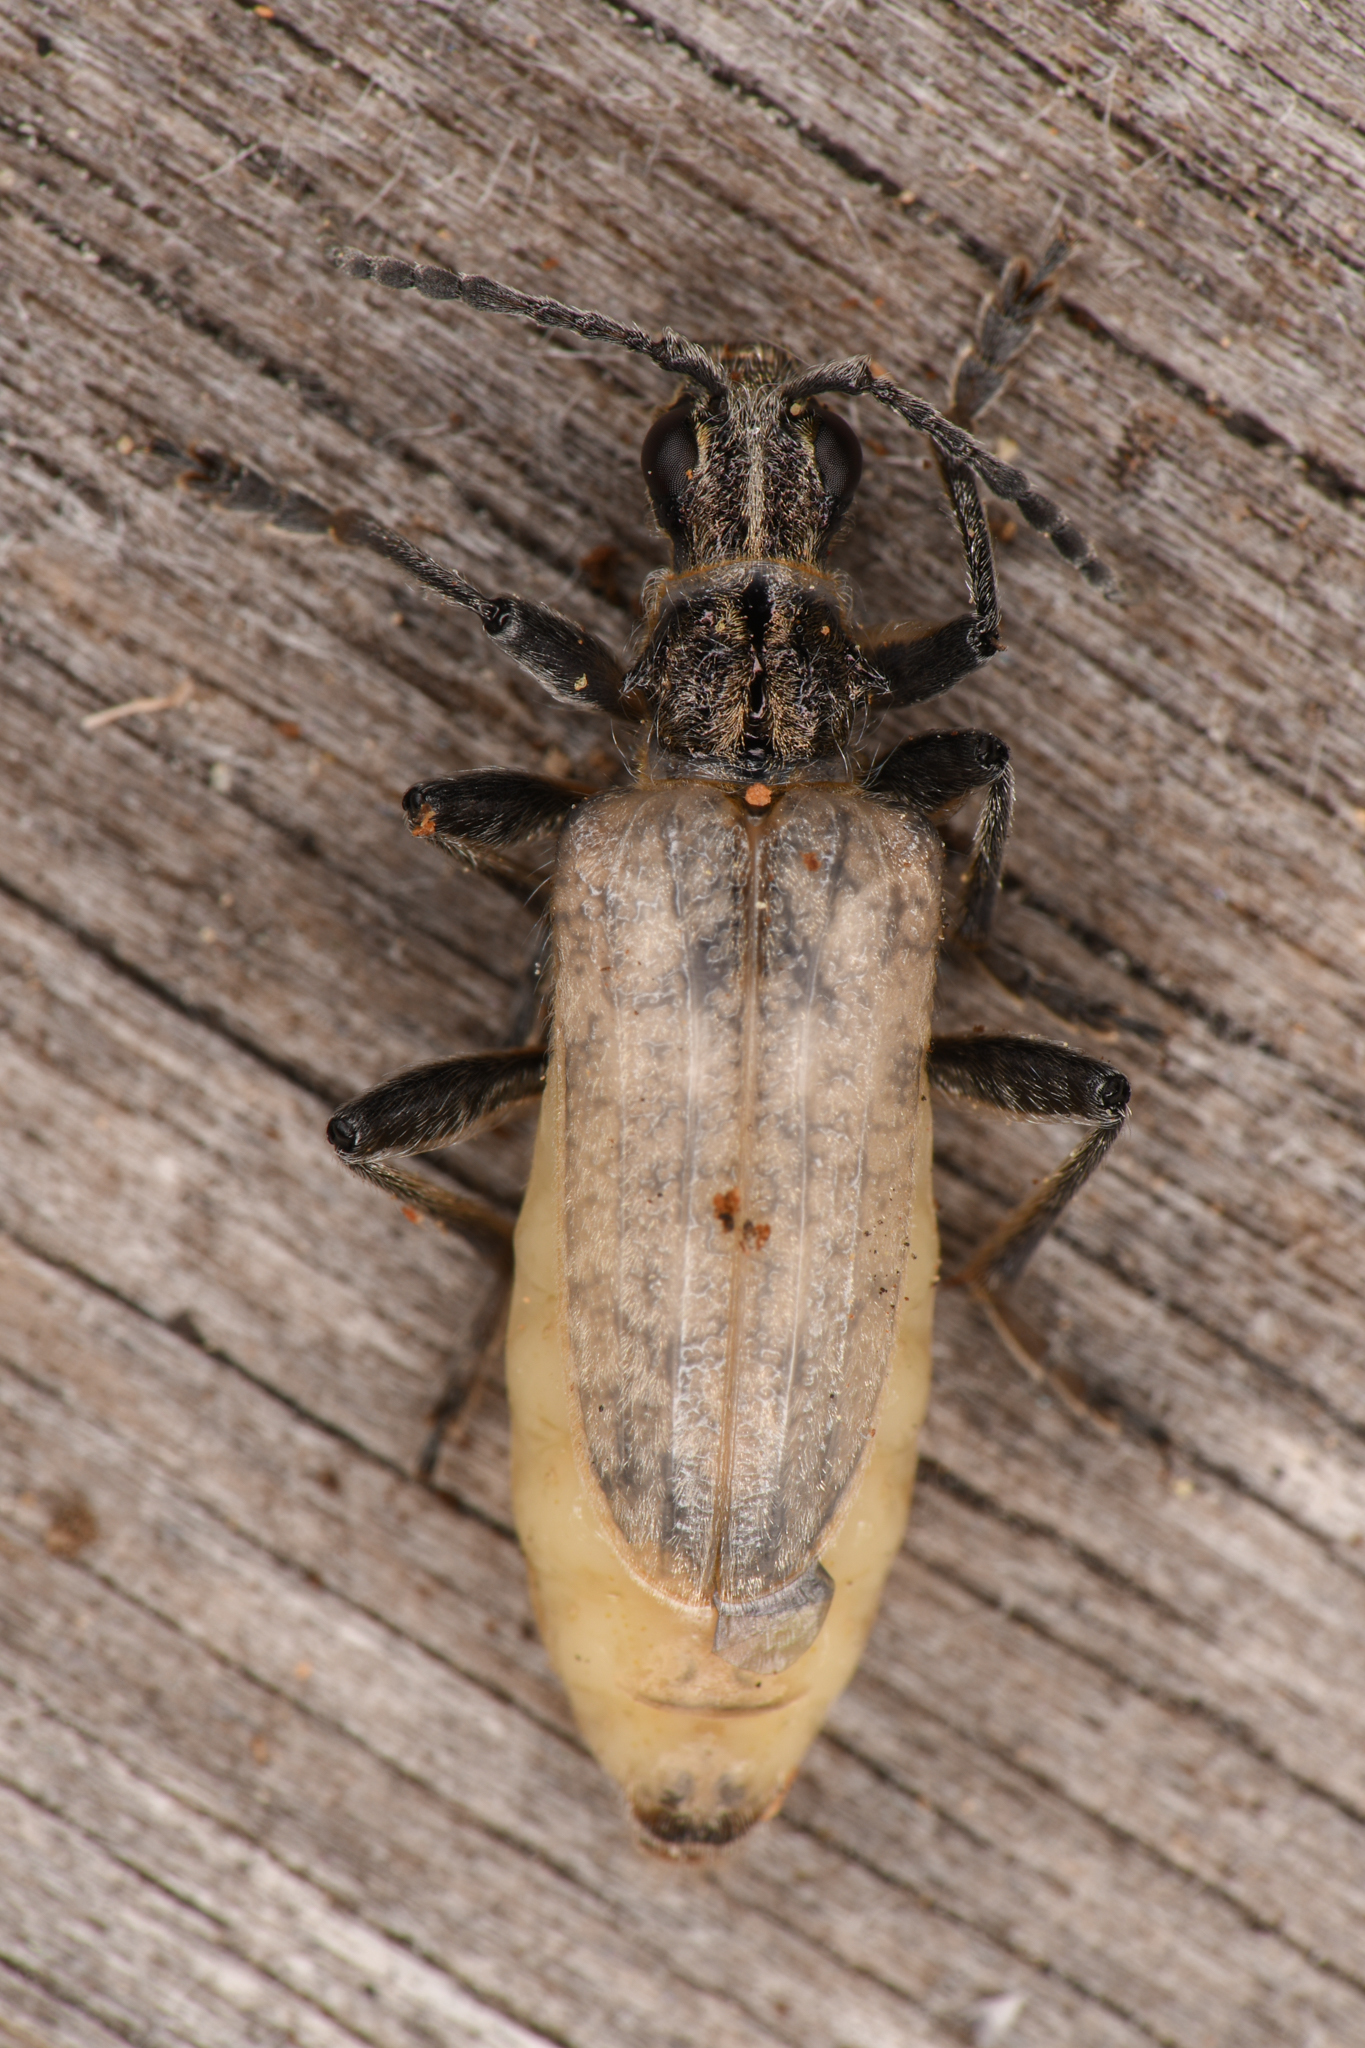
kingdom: Animalia
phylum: Arthropoda
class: Insecta
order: Coleoptera
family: Cerambycidae
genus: Rhagium
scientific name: Rhagium inquisitor
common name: Ribbed pine borer
